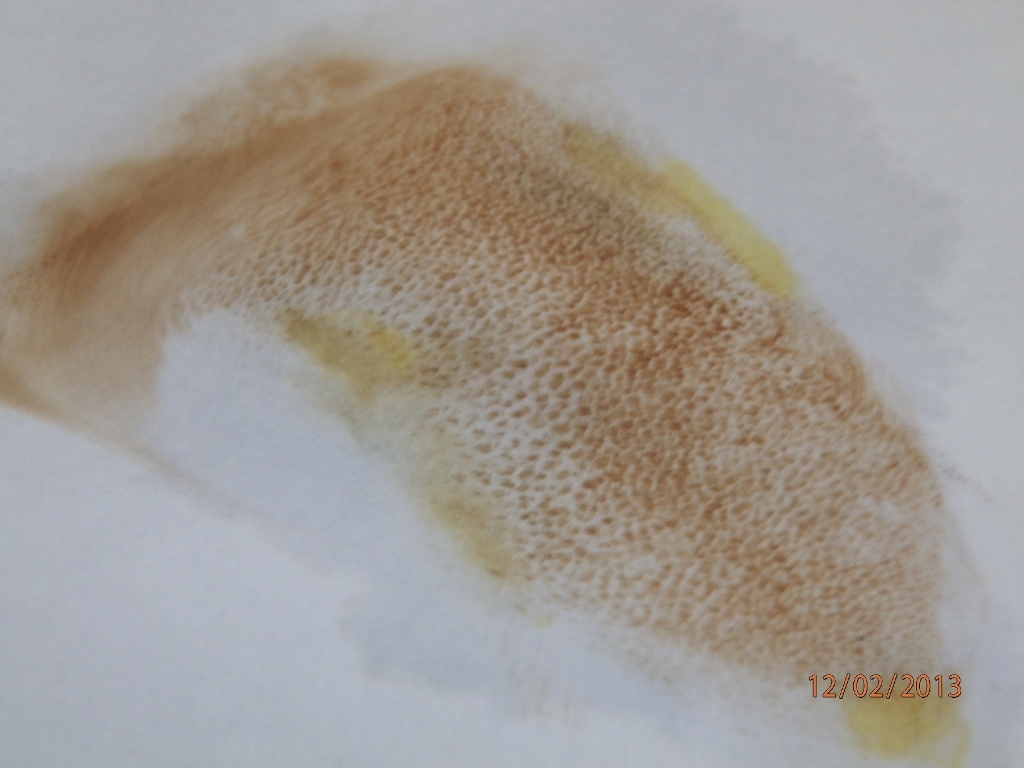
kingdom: Fungi
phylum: Basidiomycota
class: Agaricomycetes
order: Boletales
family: Suillaceae
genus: Suillus
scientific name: Suillus kaibabensis
